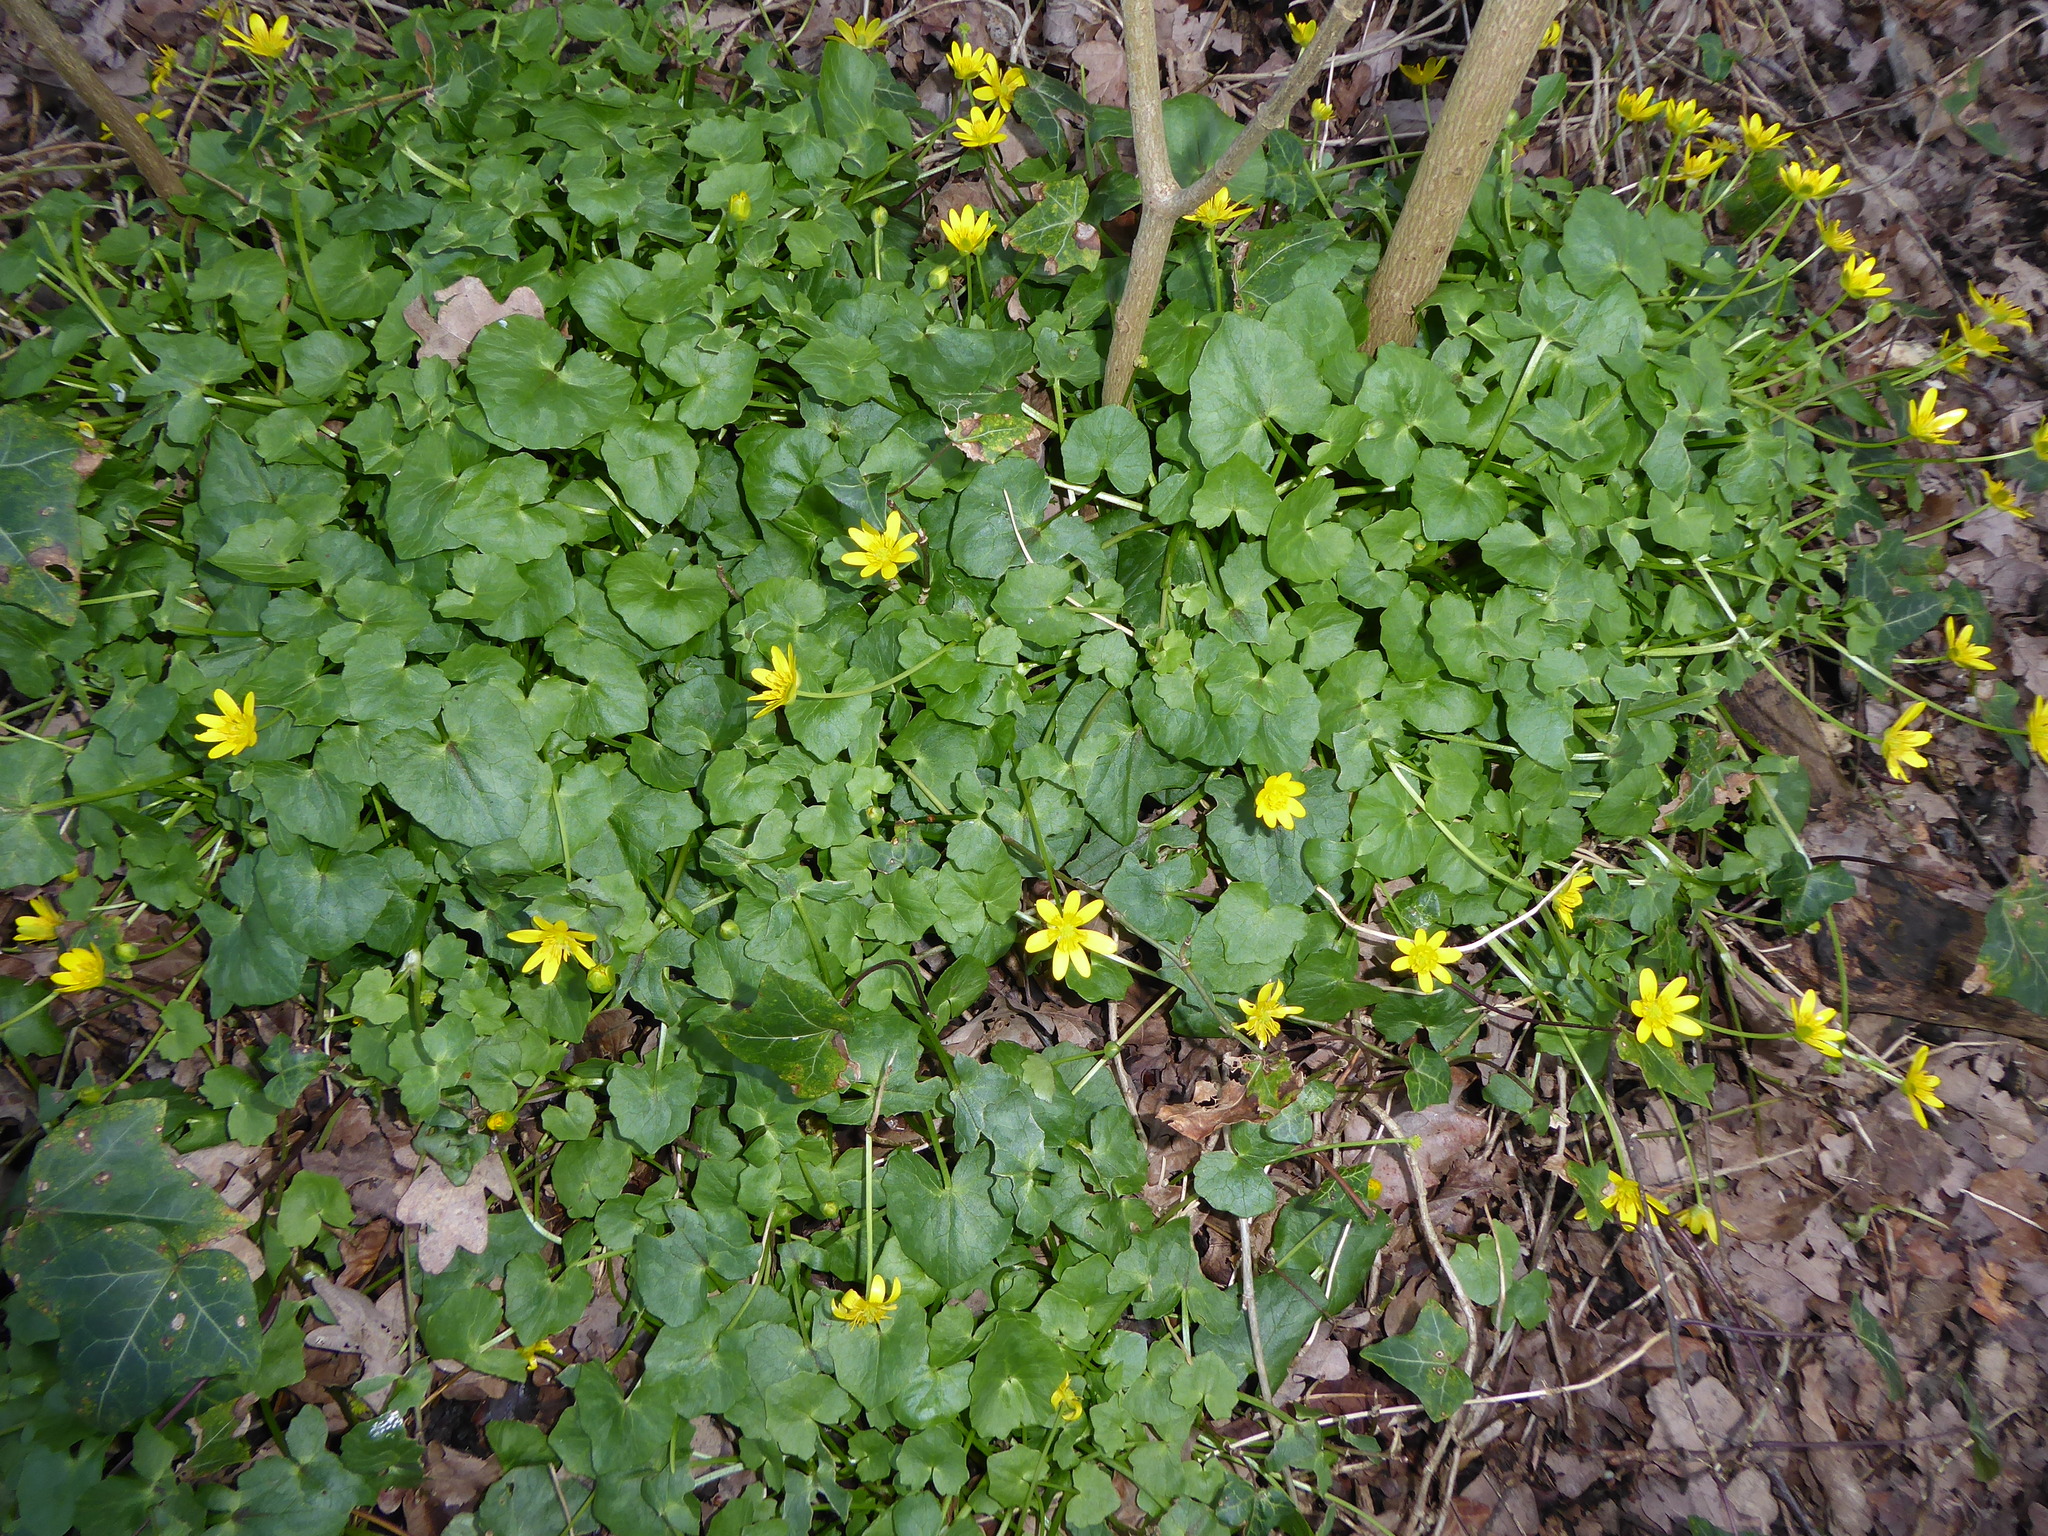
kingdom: Plantae
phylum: Tracheophyta
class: Magnoliopsida
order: Ranunculales
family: Ranunculaceae
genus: Ficaria
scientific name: Ficaria verna
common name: Lesser celandine
